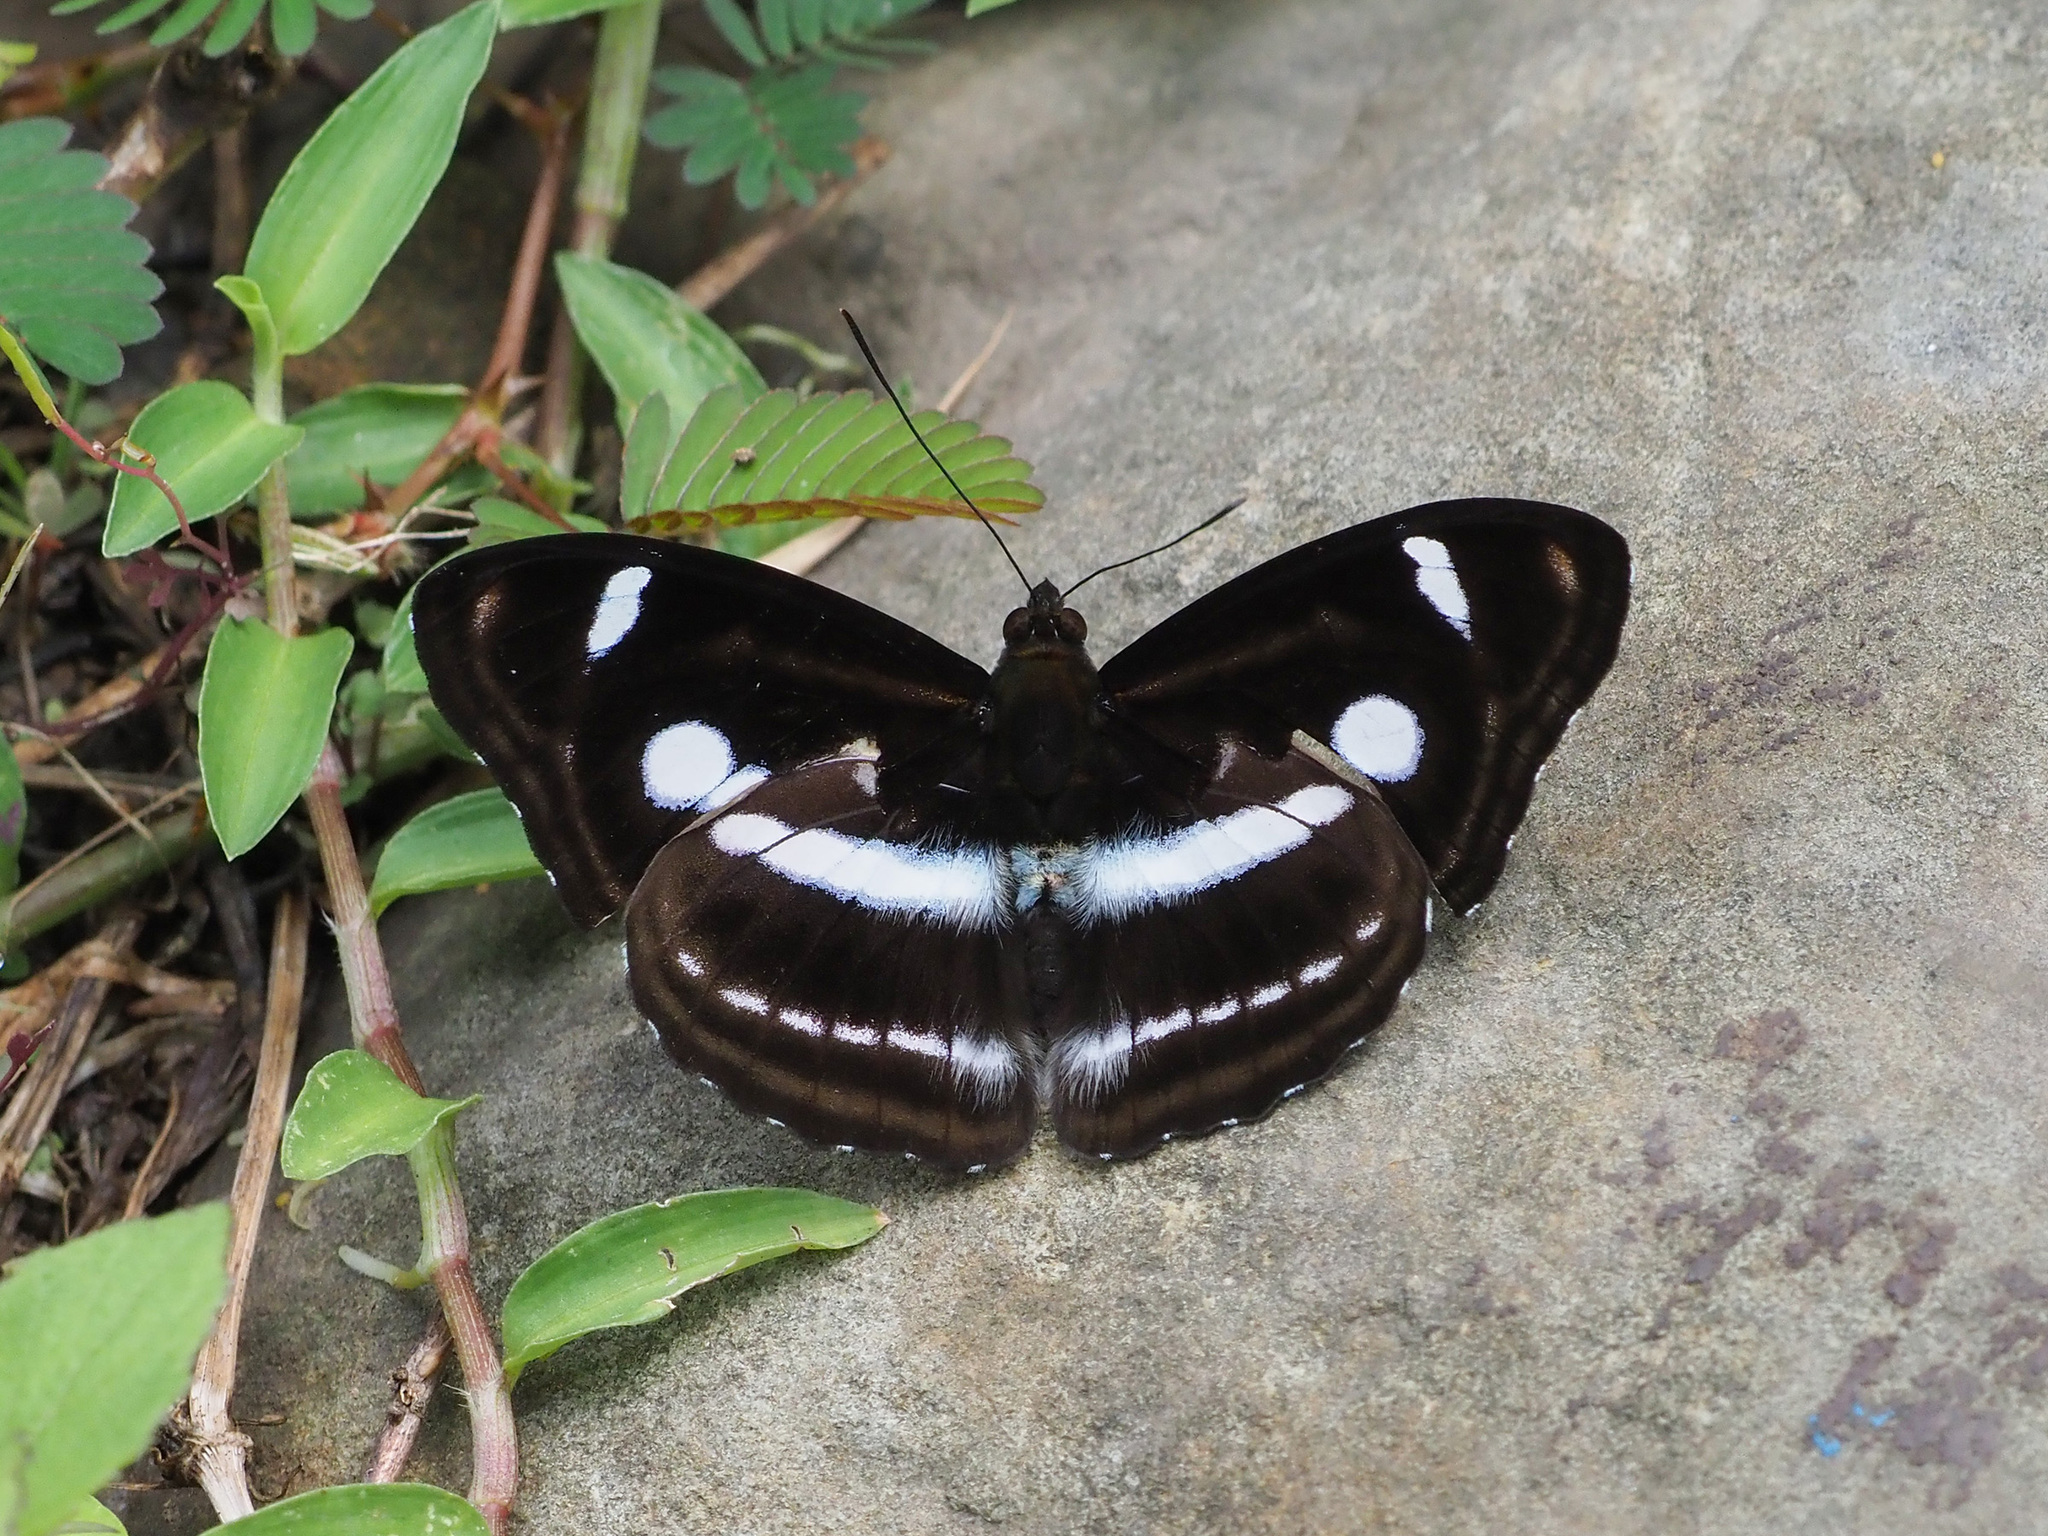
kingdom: Animalia
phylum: Arthropoda
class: Insecta
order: Lepidoptera
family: Nymphalidae
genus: Pantoporia
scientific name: Pantoporia cama
